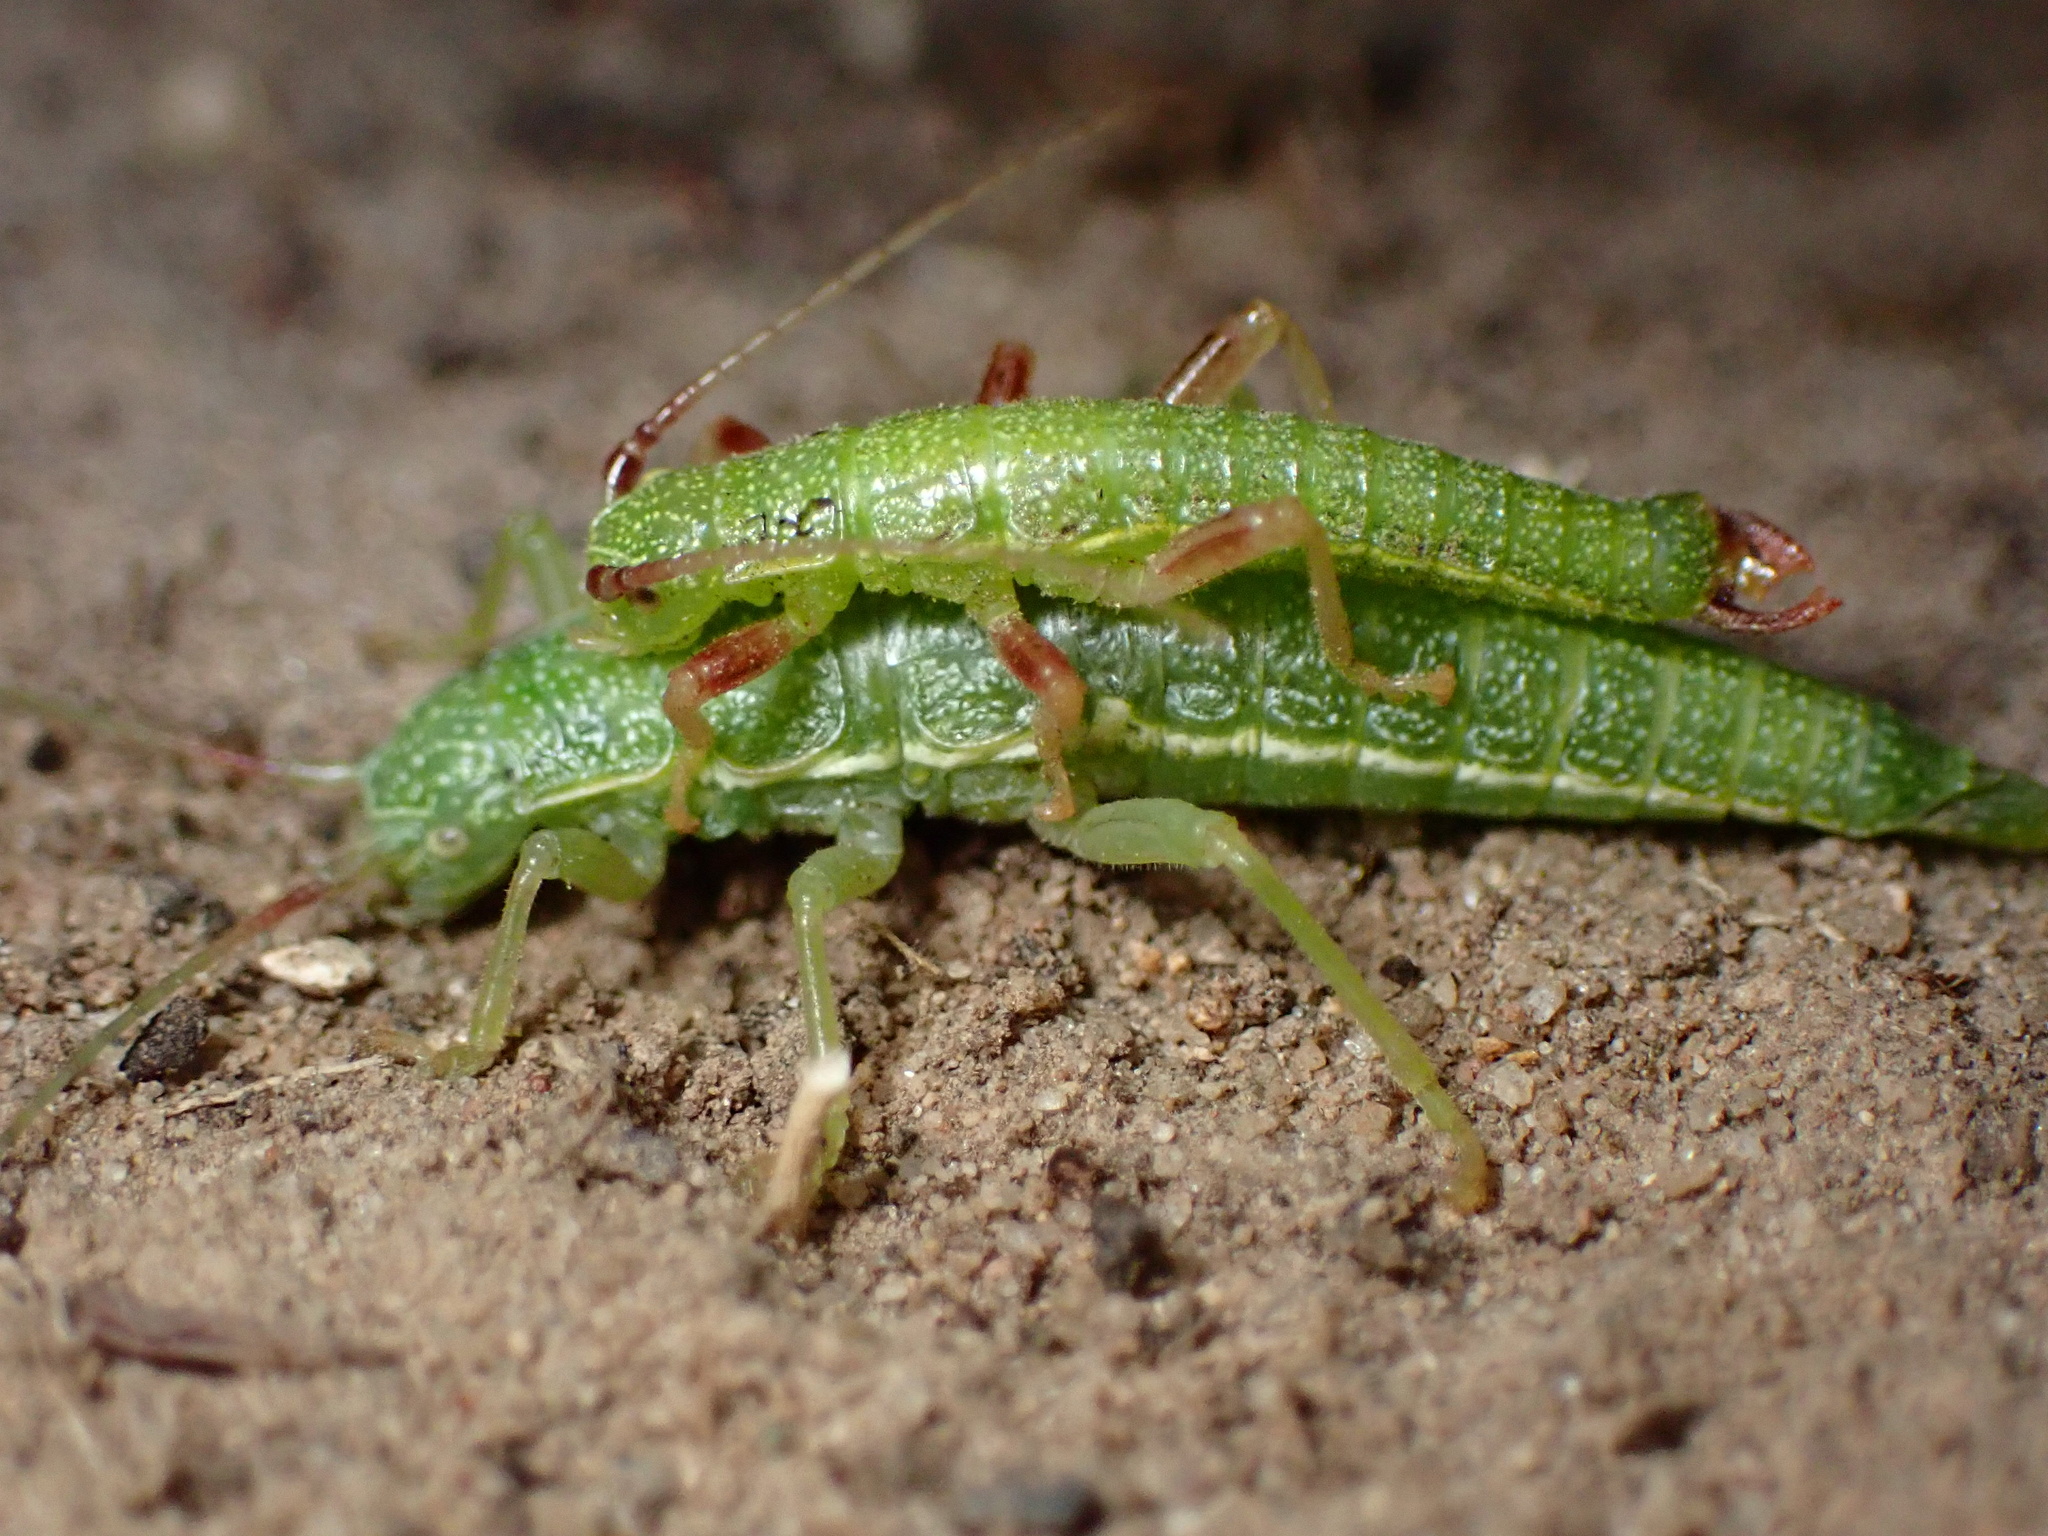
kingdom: Animalia
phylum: Arthropoda
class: Insecta
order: Phasmida
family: Timematidae
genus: Timema
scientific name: Timema californicum
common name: California timema
